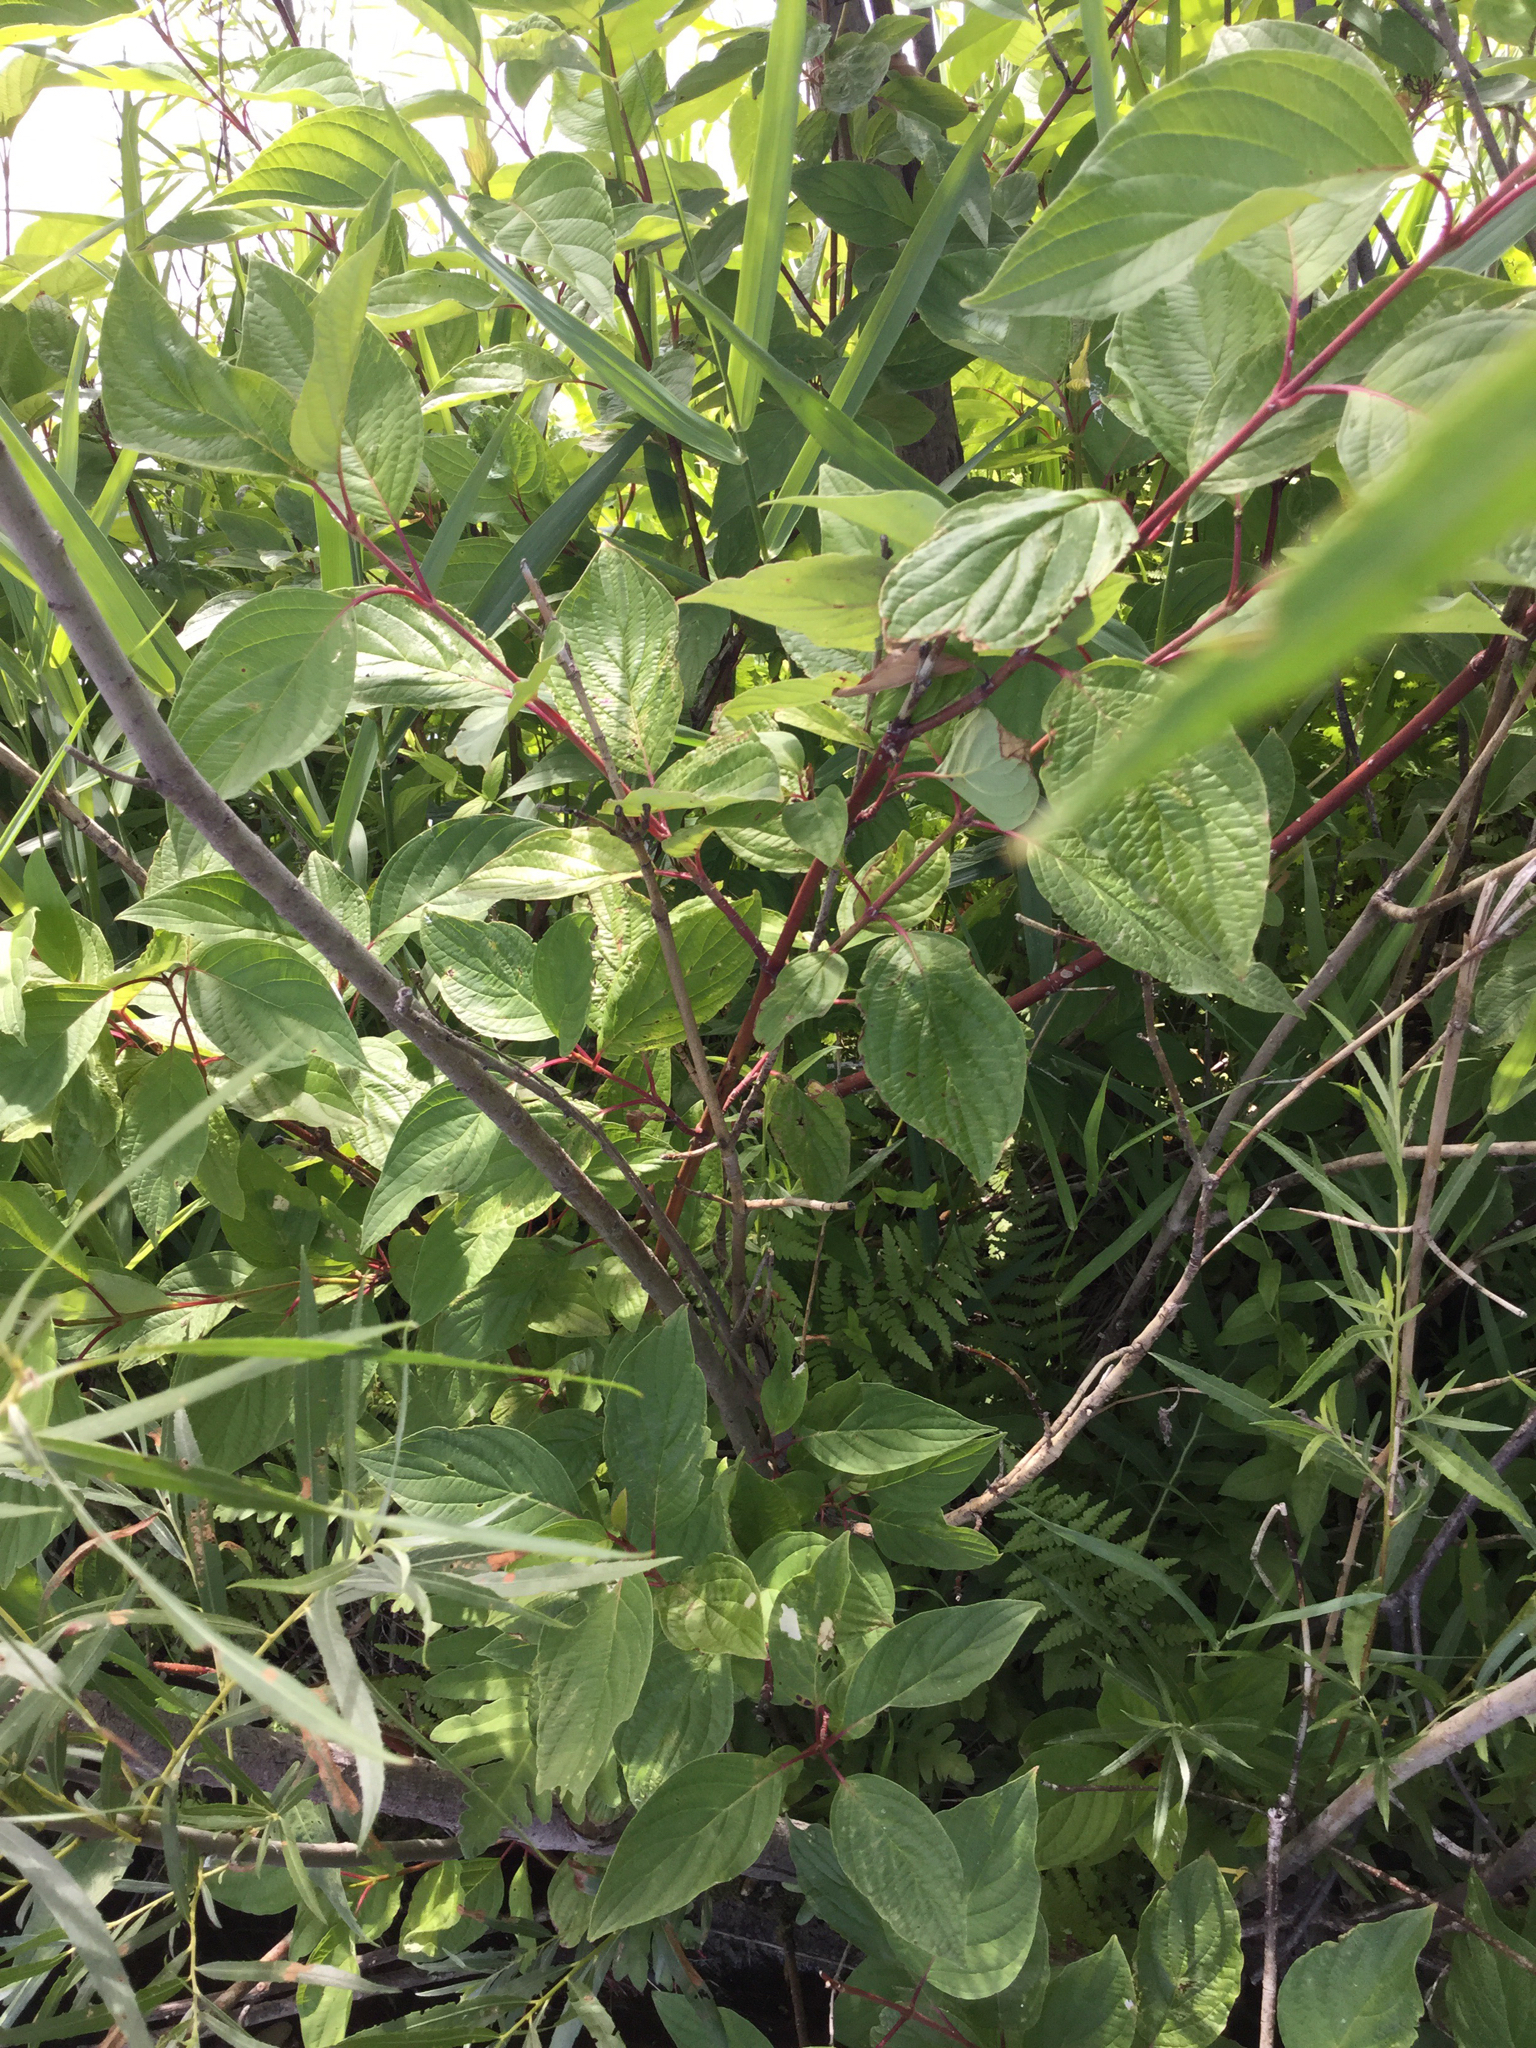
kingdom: Plantae
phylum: Tracheophyta
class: Magnoliopsida
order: Cornales
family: Cornaceae
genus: Cornus
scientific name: Cornus sericea
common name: Red-osier dogwood
